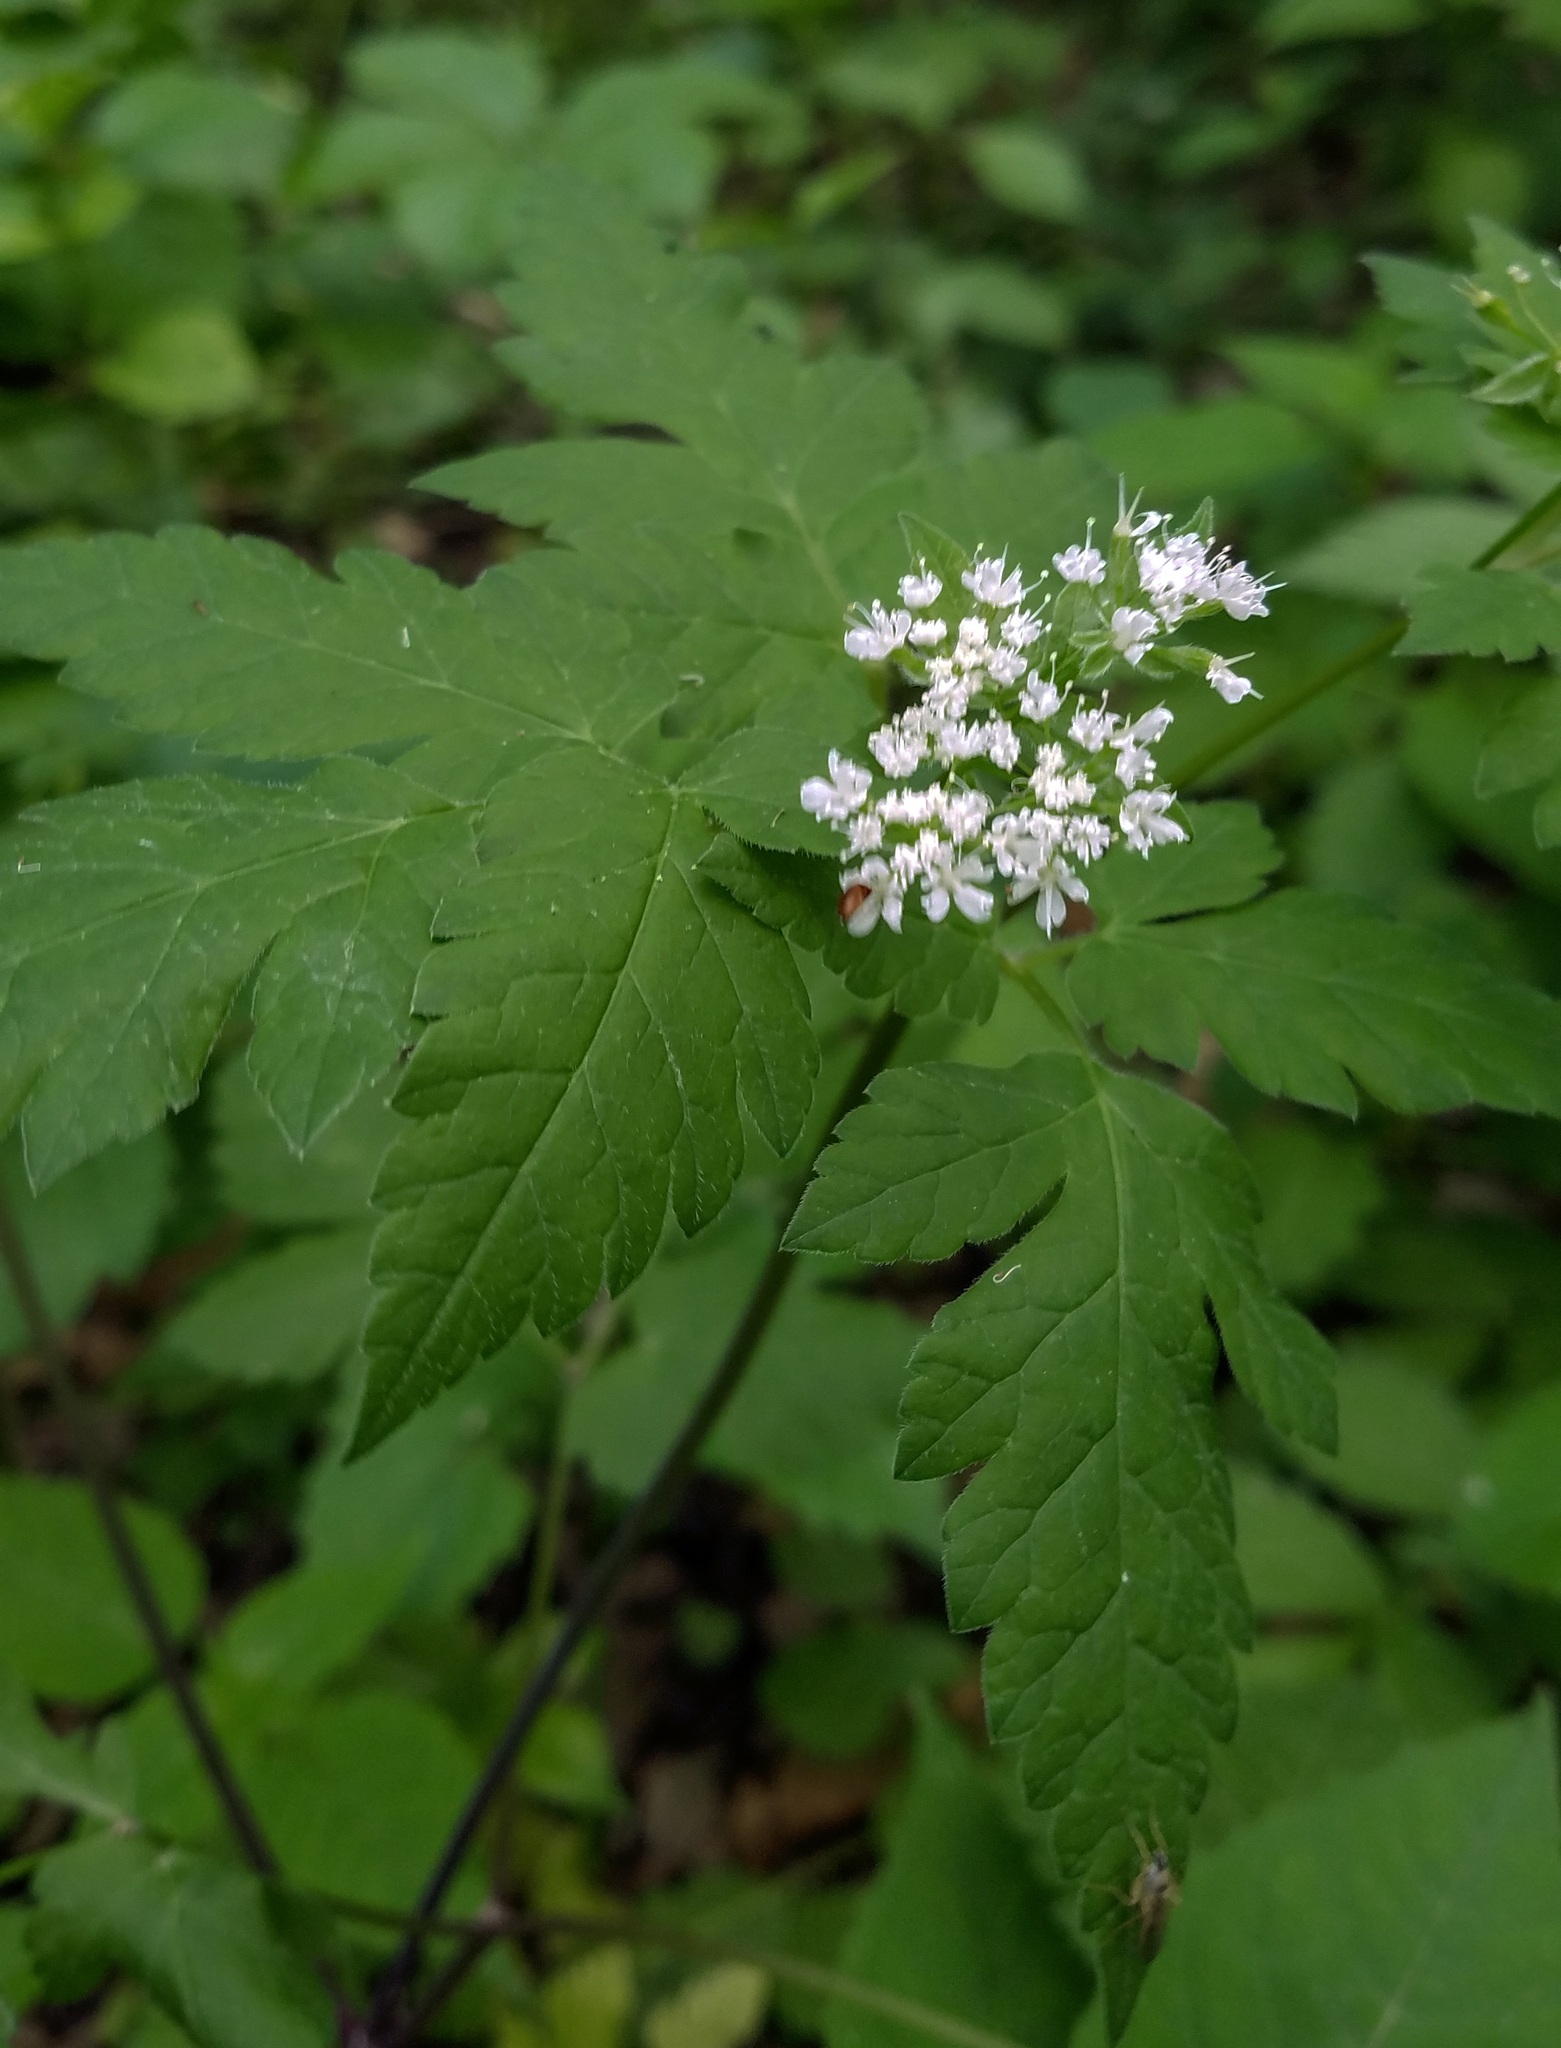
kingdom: Plantae
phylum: Tracheophyta
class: Magnoliopsida
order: Apiales
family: Apiaceae
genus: Osmorhiza
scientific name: Osmorhiza longistylis
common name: Smooth sweet cicely
